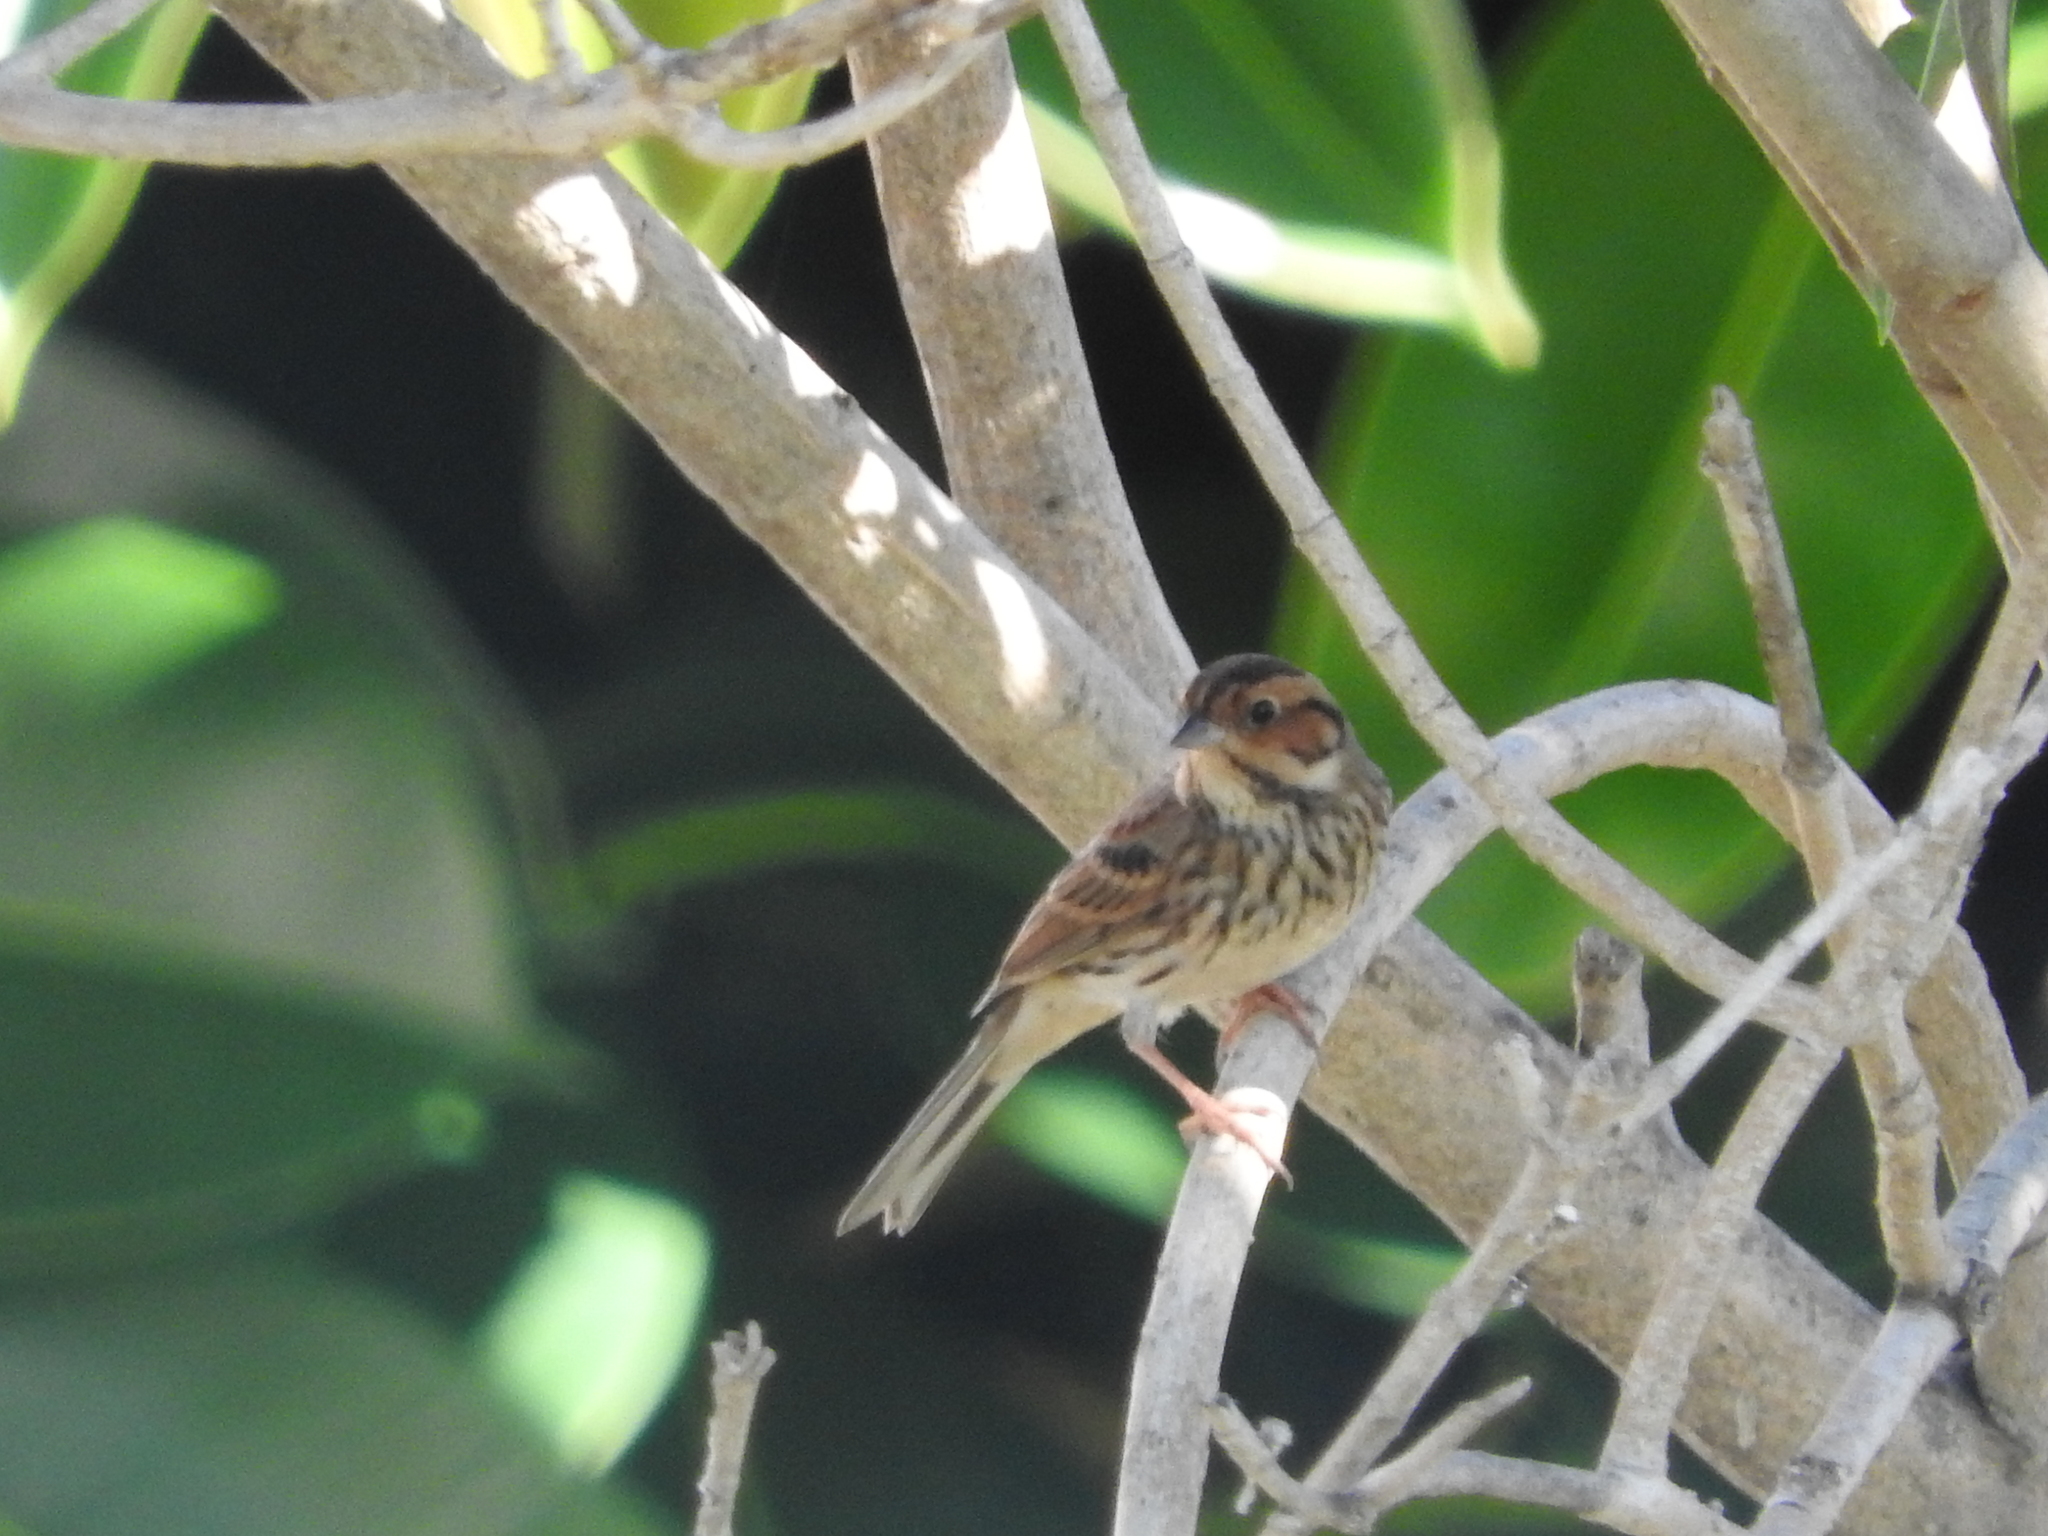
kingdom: Animalia
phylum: Chordata
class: Aves
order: Passeriformes
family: Emberizidae
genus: Emberiza
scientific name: Emberiza pusilla
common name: Little bunting
